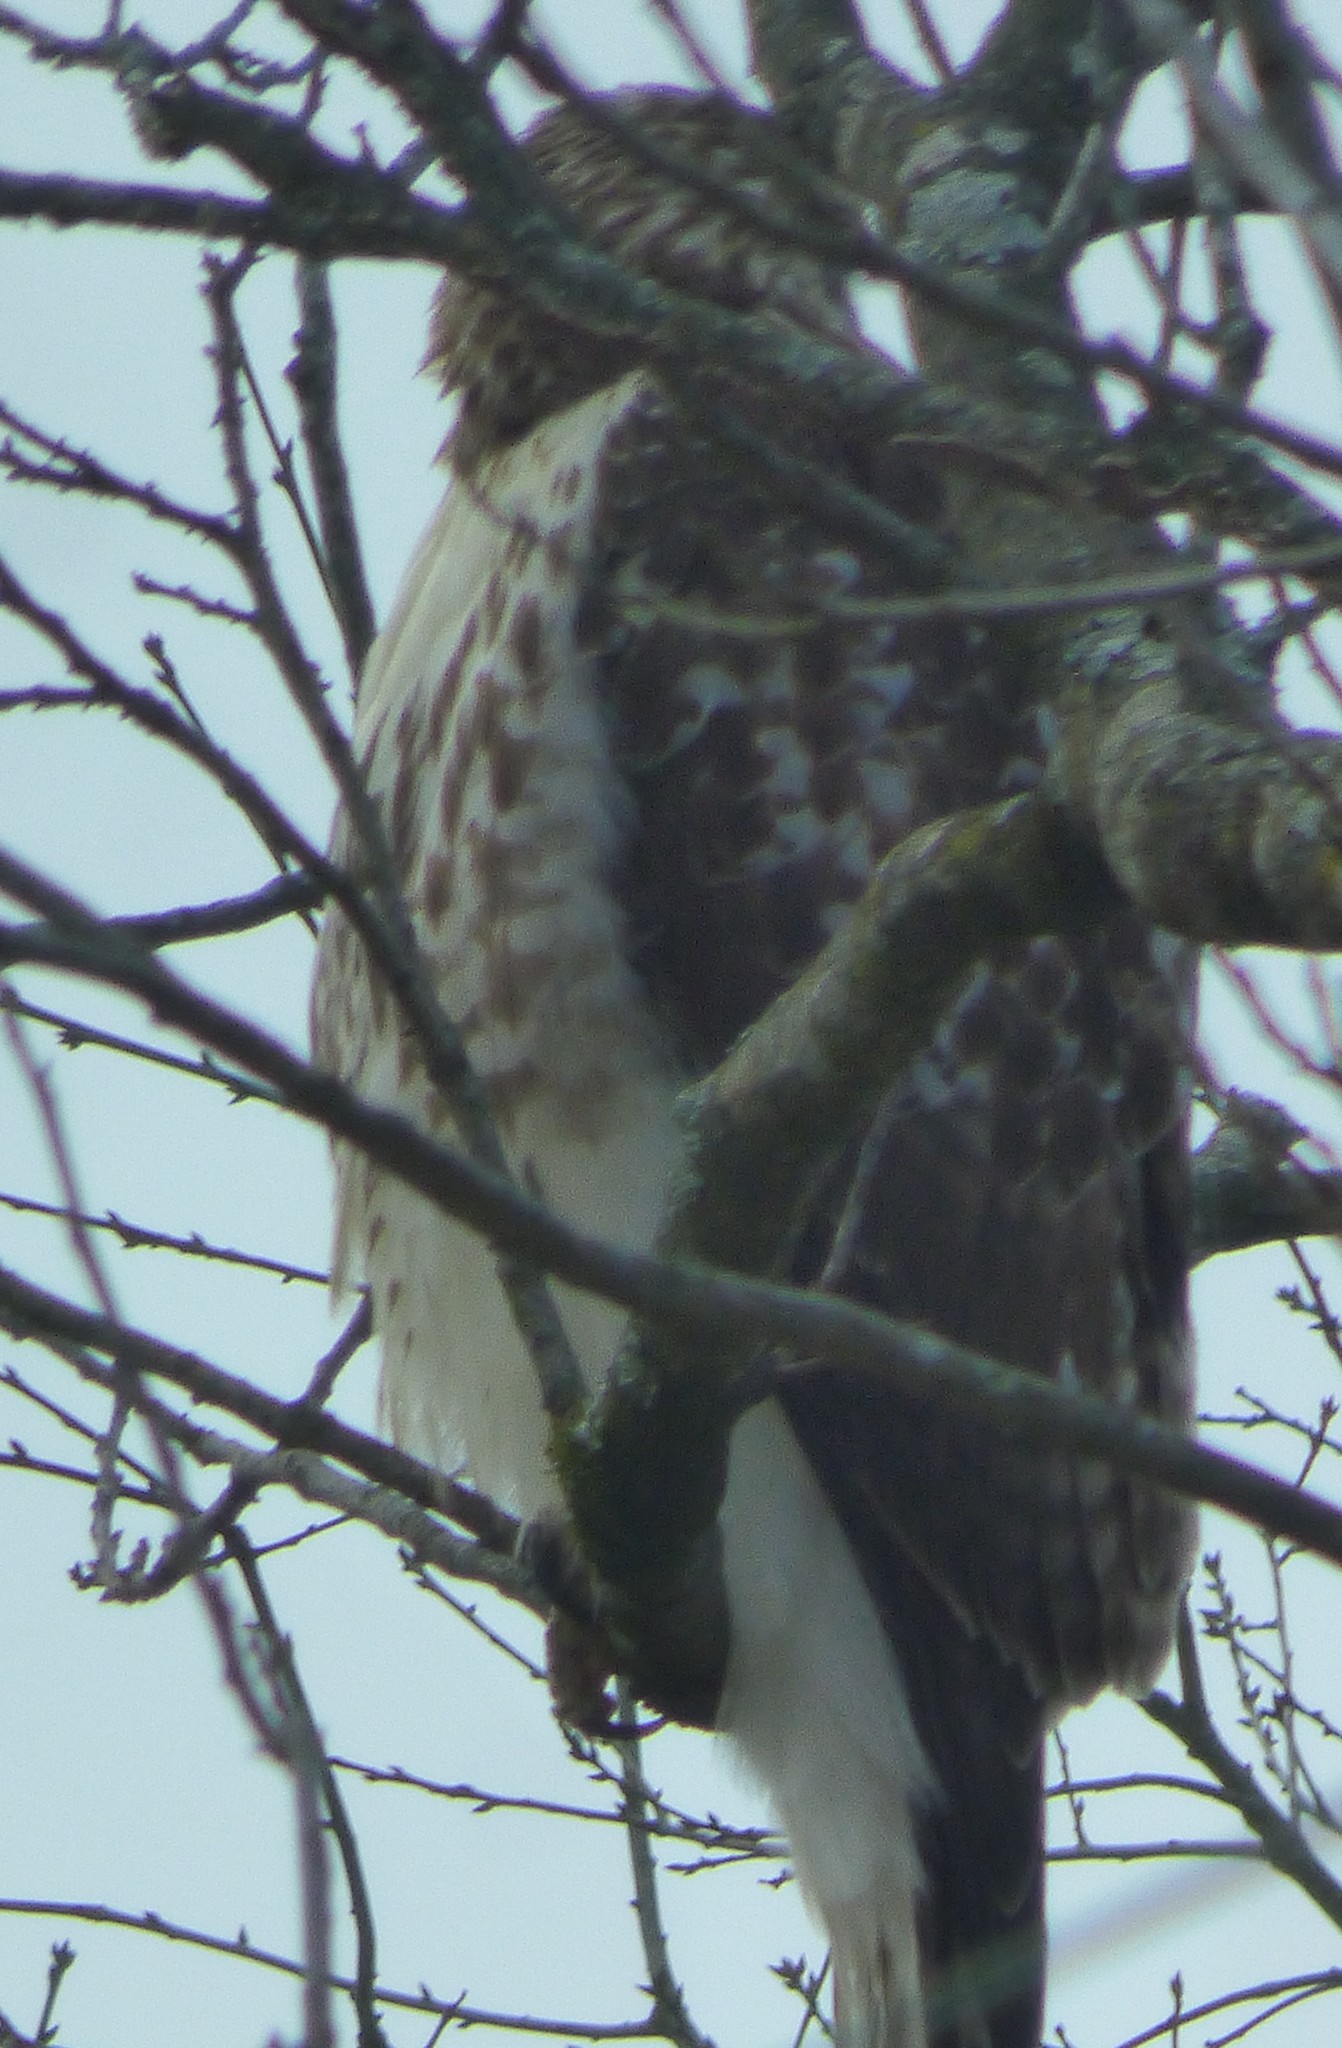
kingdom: Animalia
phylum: Chordata
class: Aves
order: Accipitriformes
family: Accipitridae
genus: Buteo
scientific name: Buteo jamaicensis
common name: Red-tailed hawk
